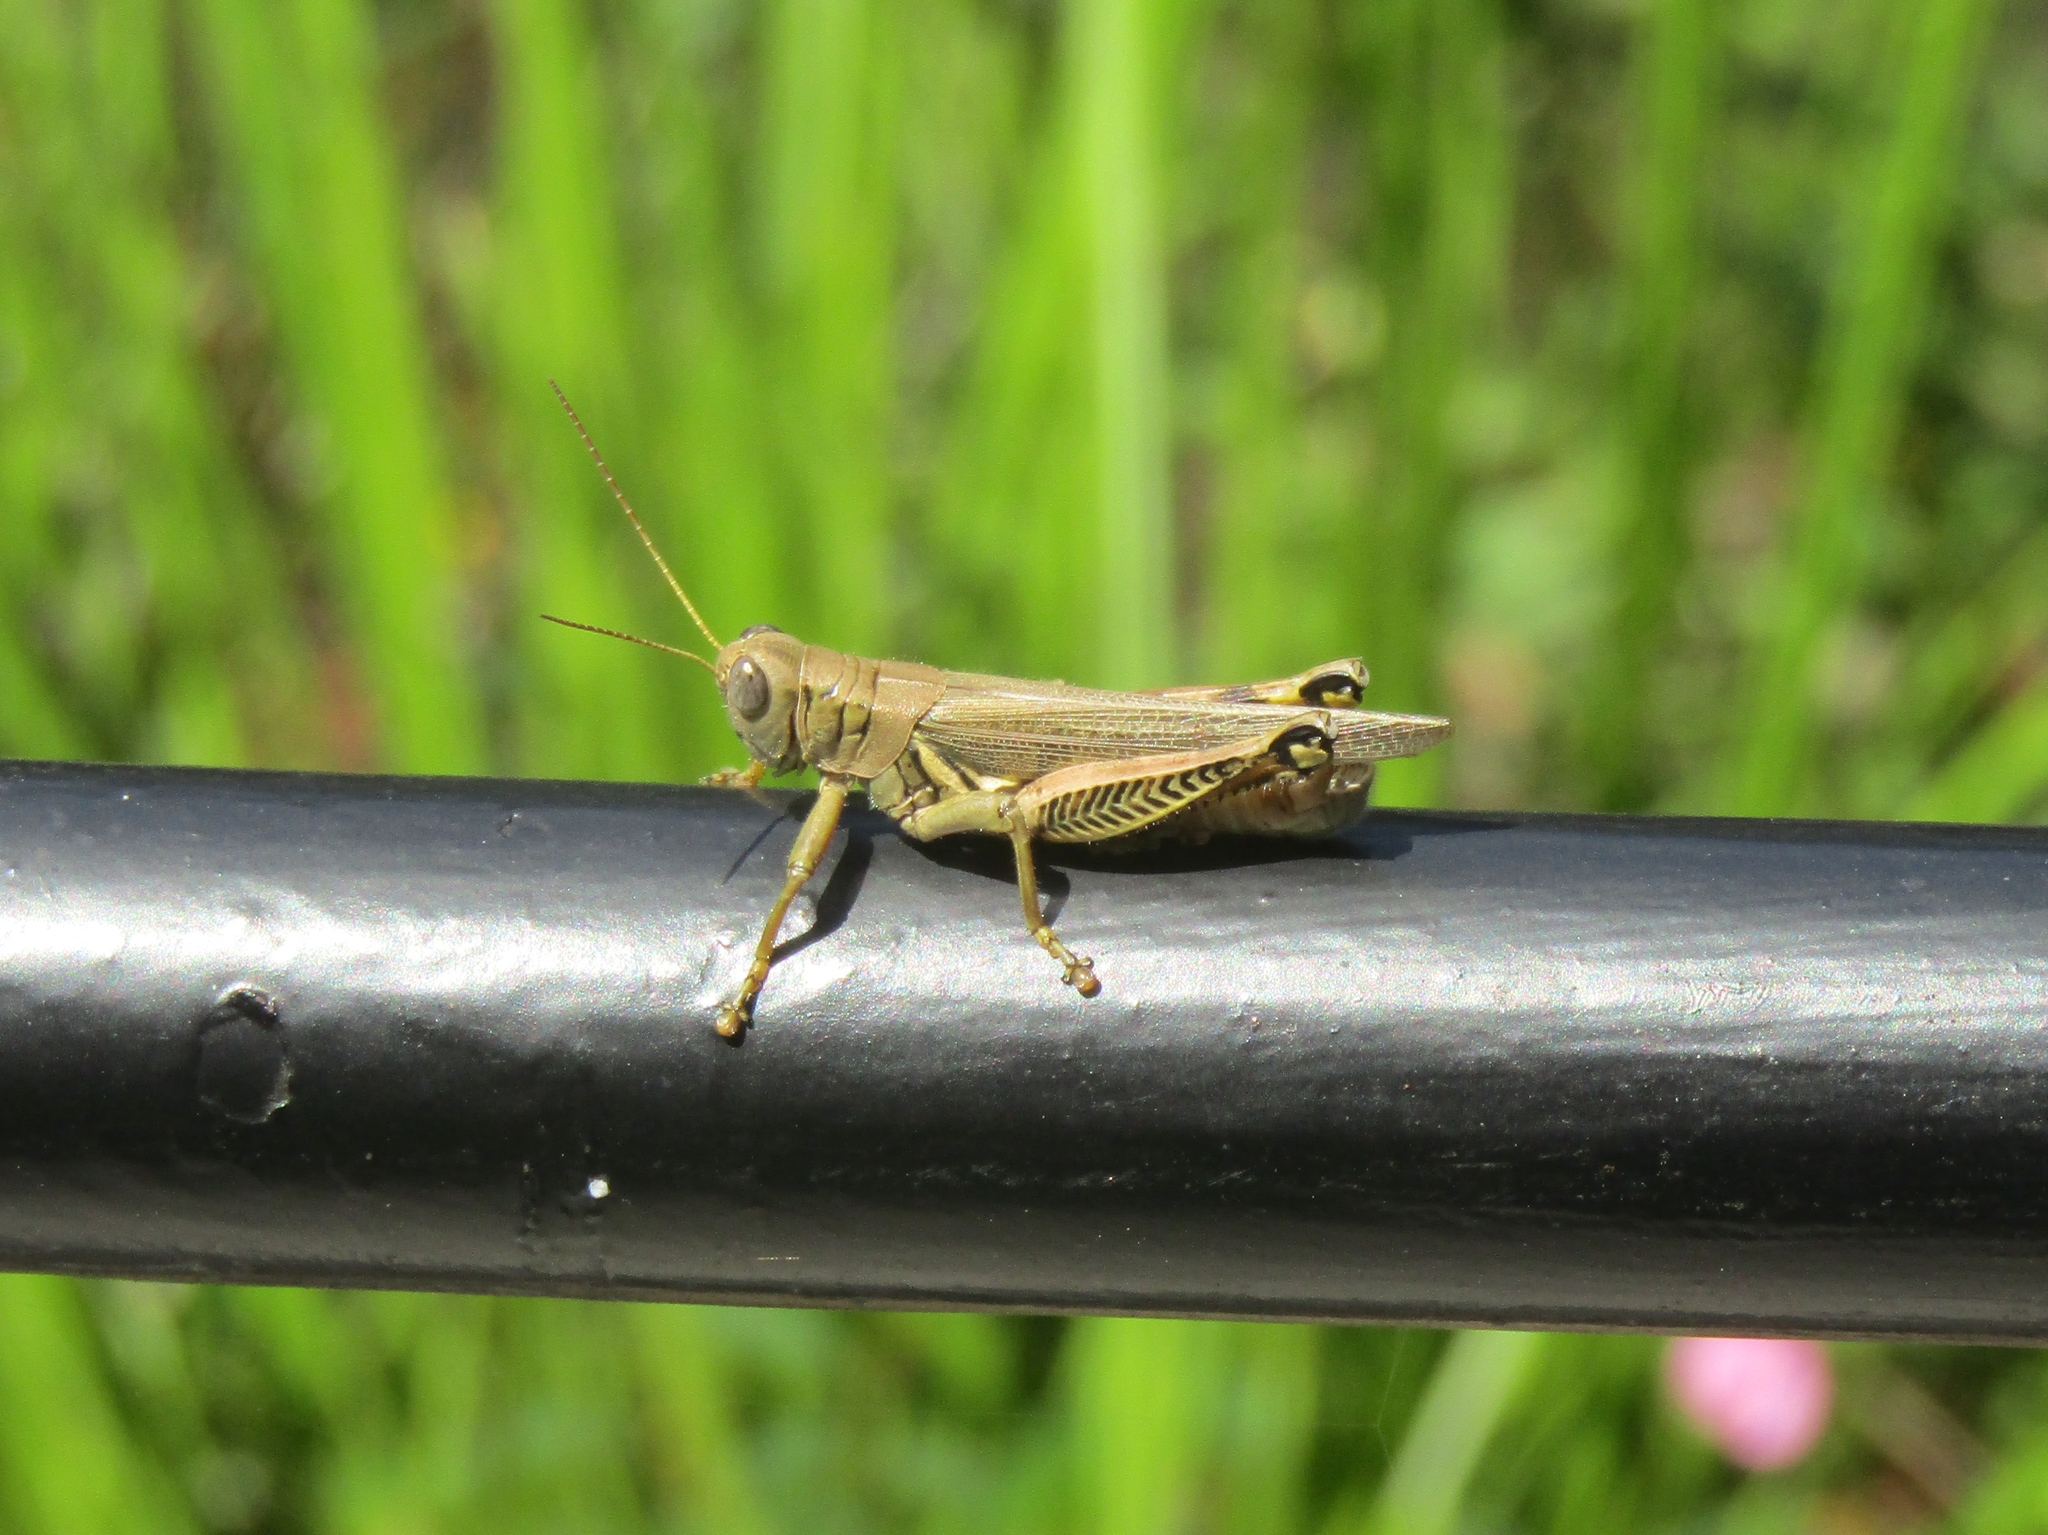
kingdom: Animalia
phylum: Arthropoda
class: Insecta
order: Orthoptera
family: Acrididae
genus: Melanoplus
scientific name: Melanoplus differentialis
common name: Differential grasshopper
